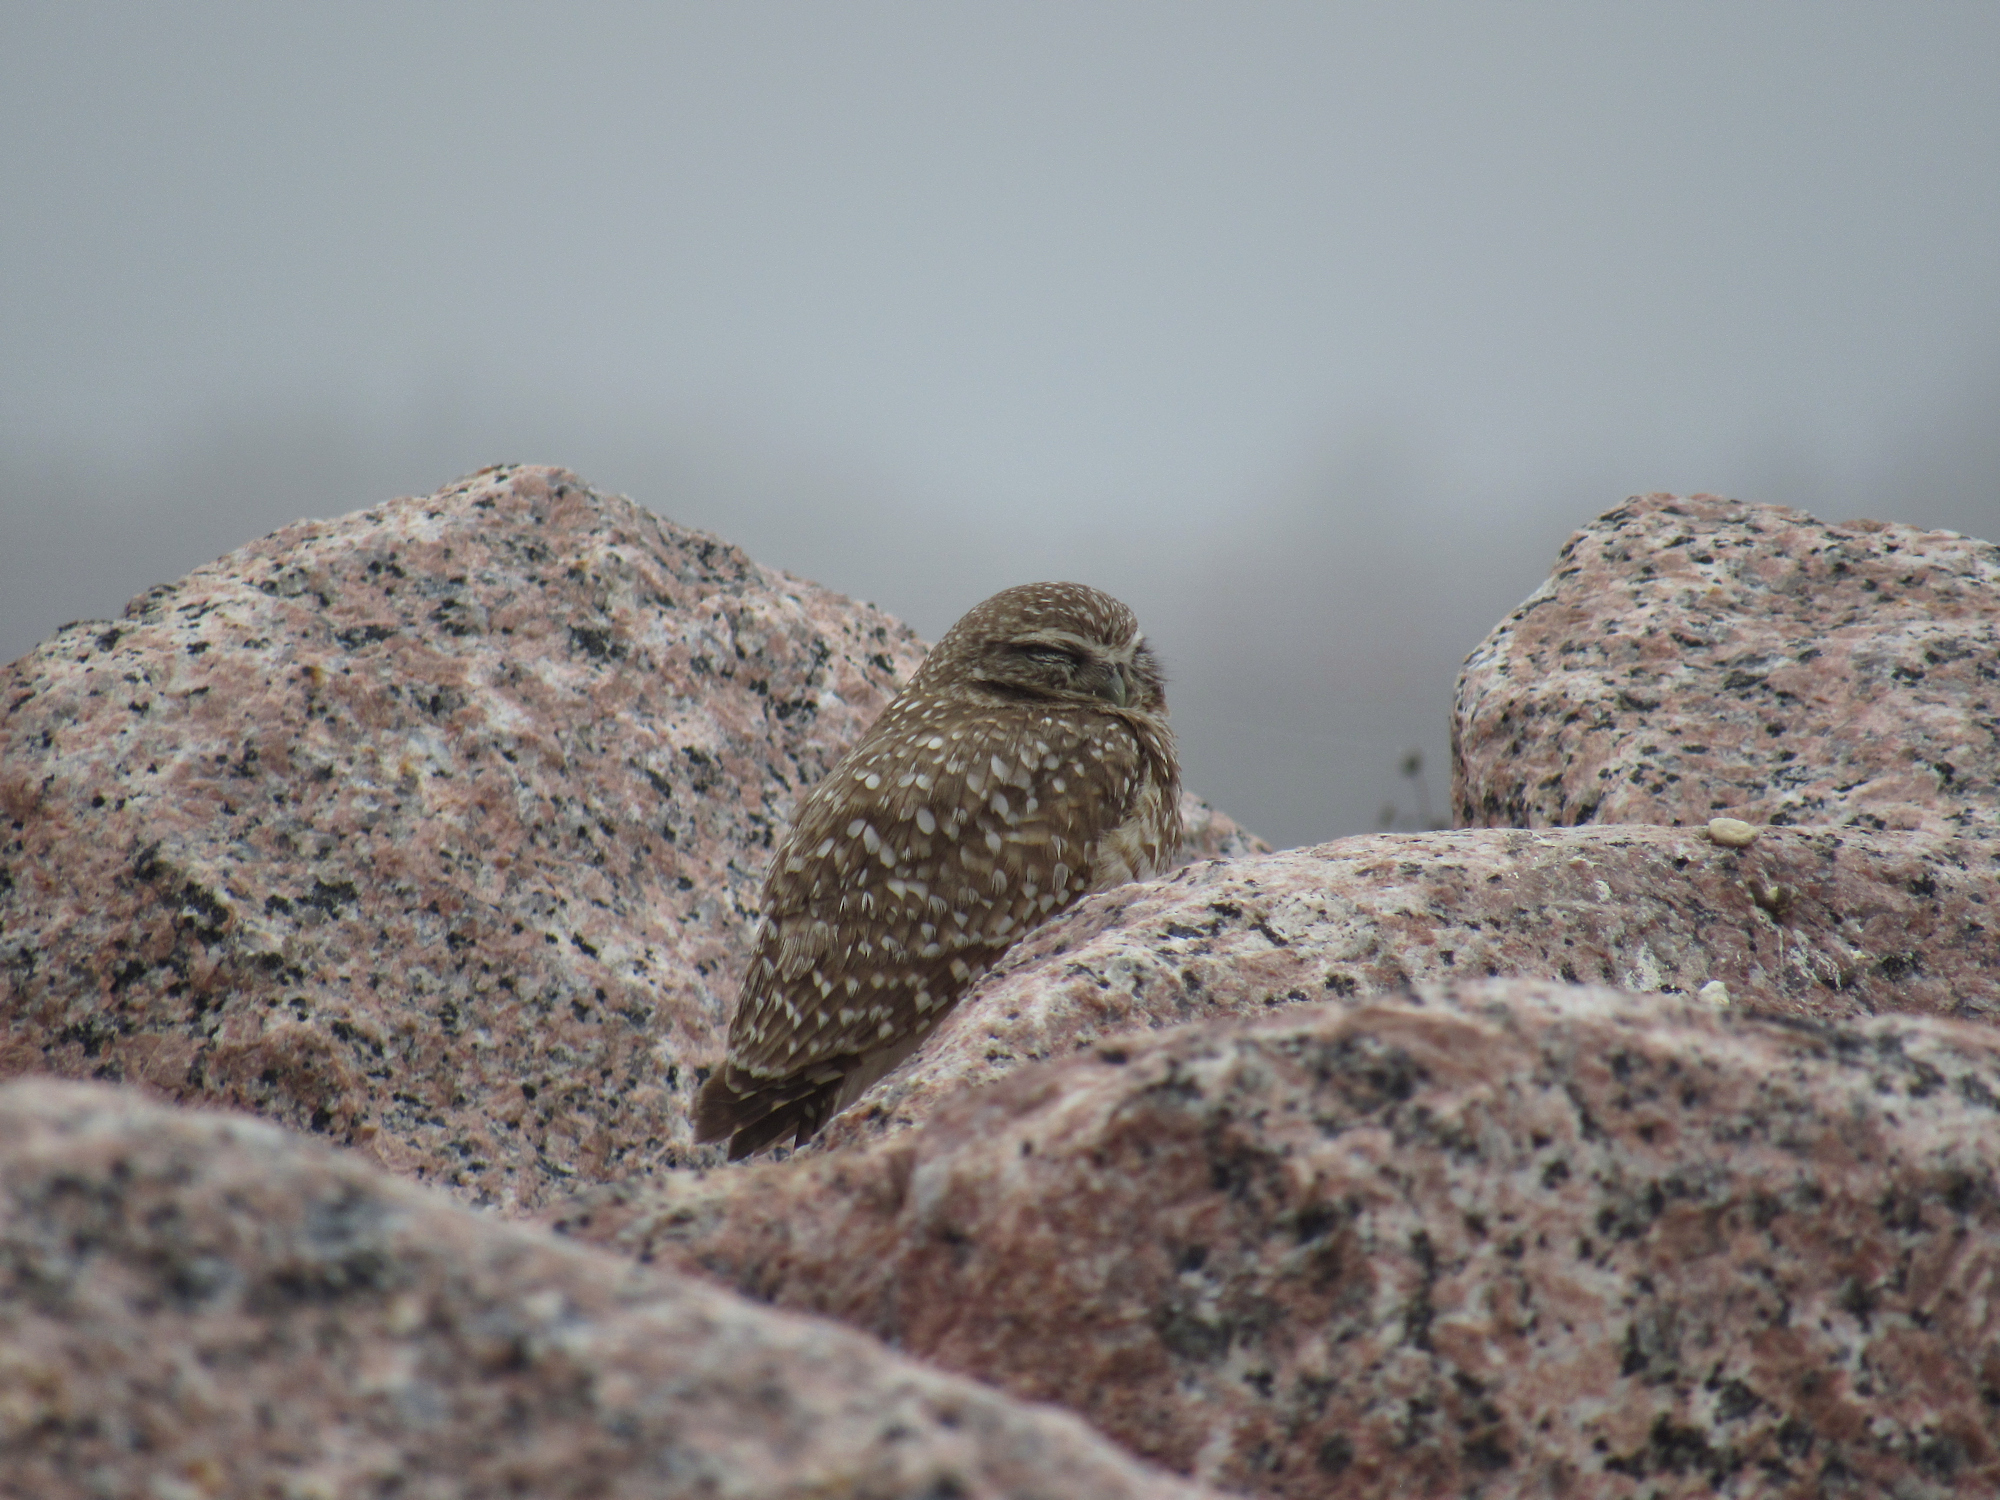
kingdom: Animalia
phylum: Chordata
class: Aves
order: Strigiformes
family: Strigidae
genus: Athene
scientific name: Athene cunicularia
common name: Burrowing owl
